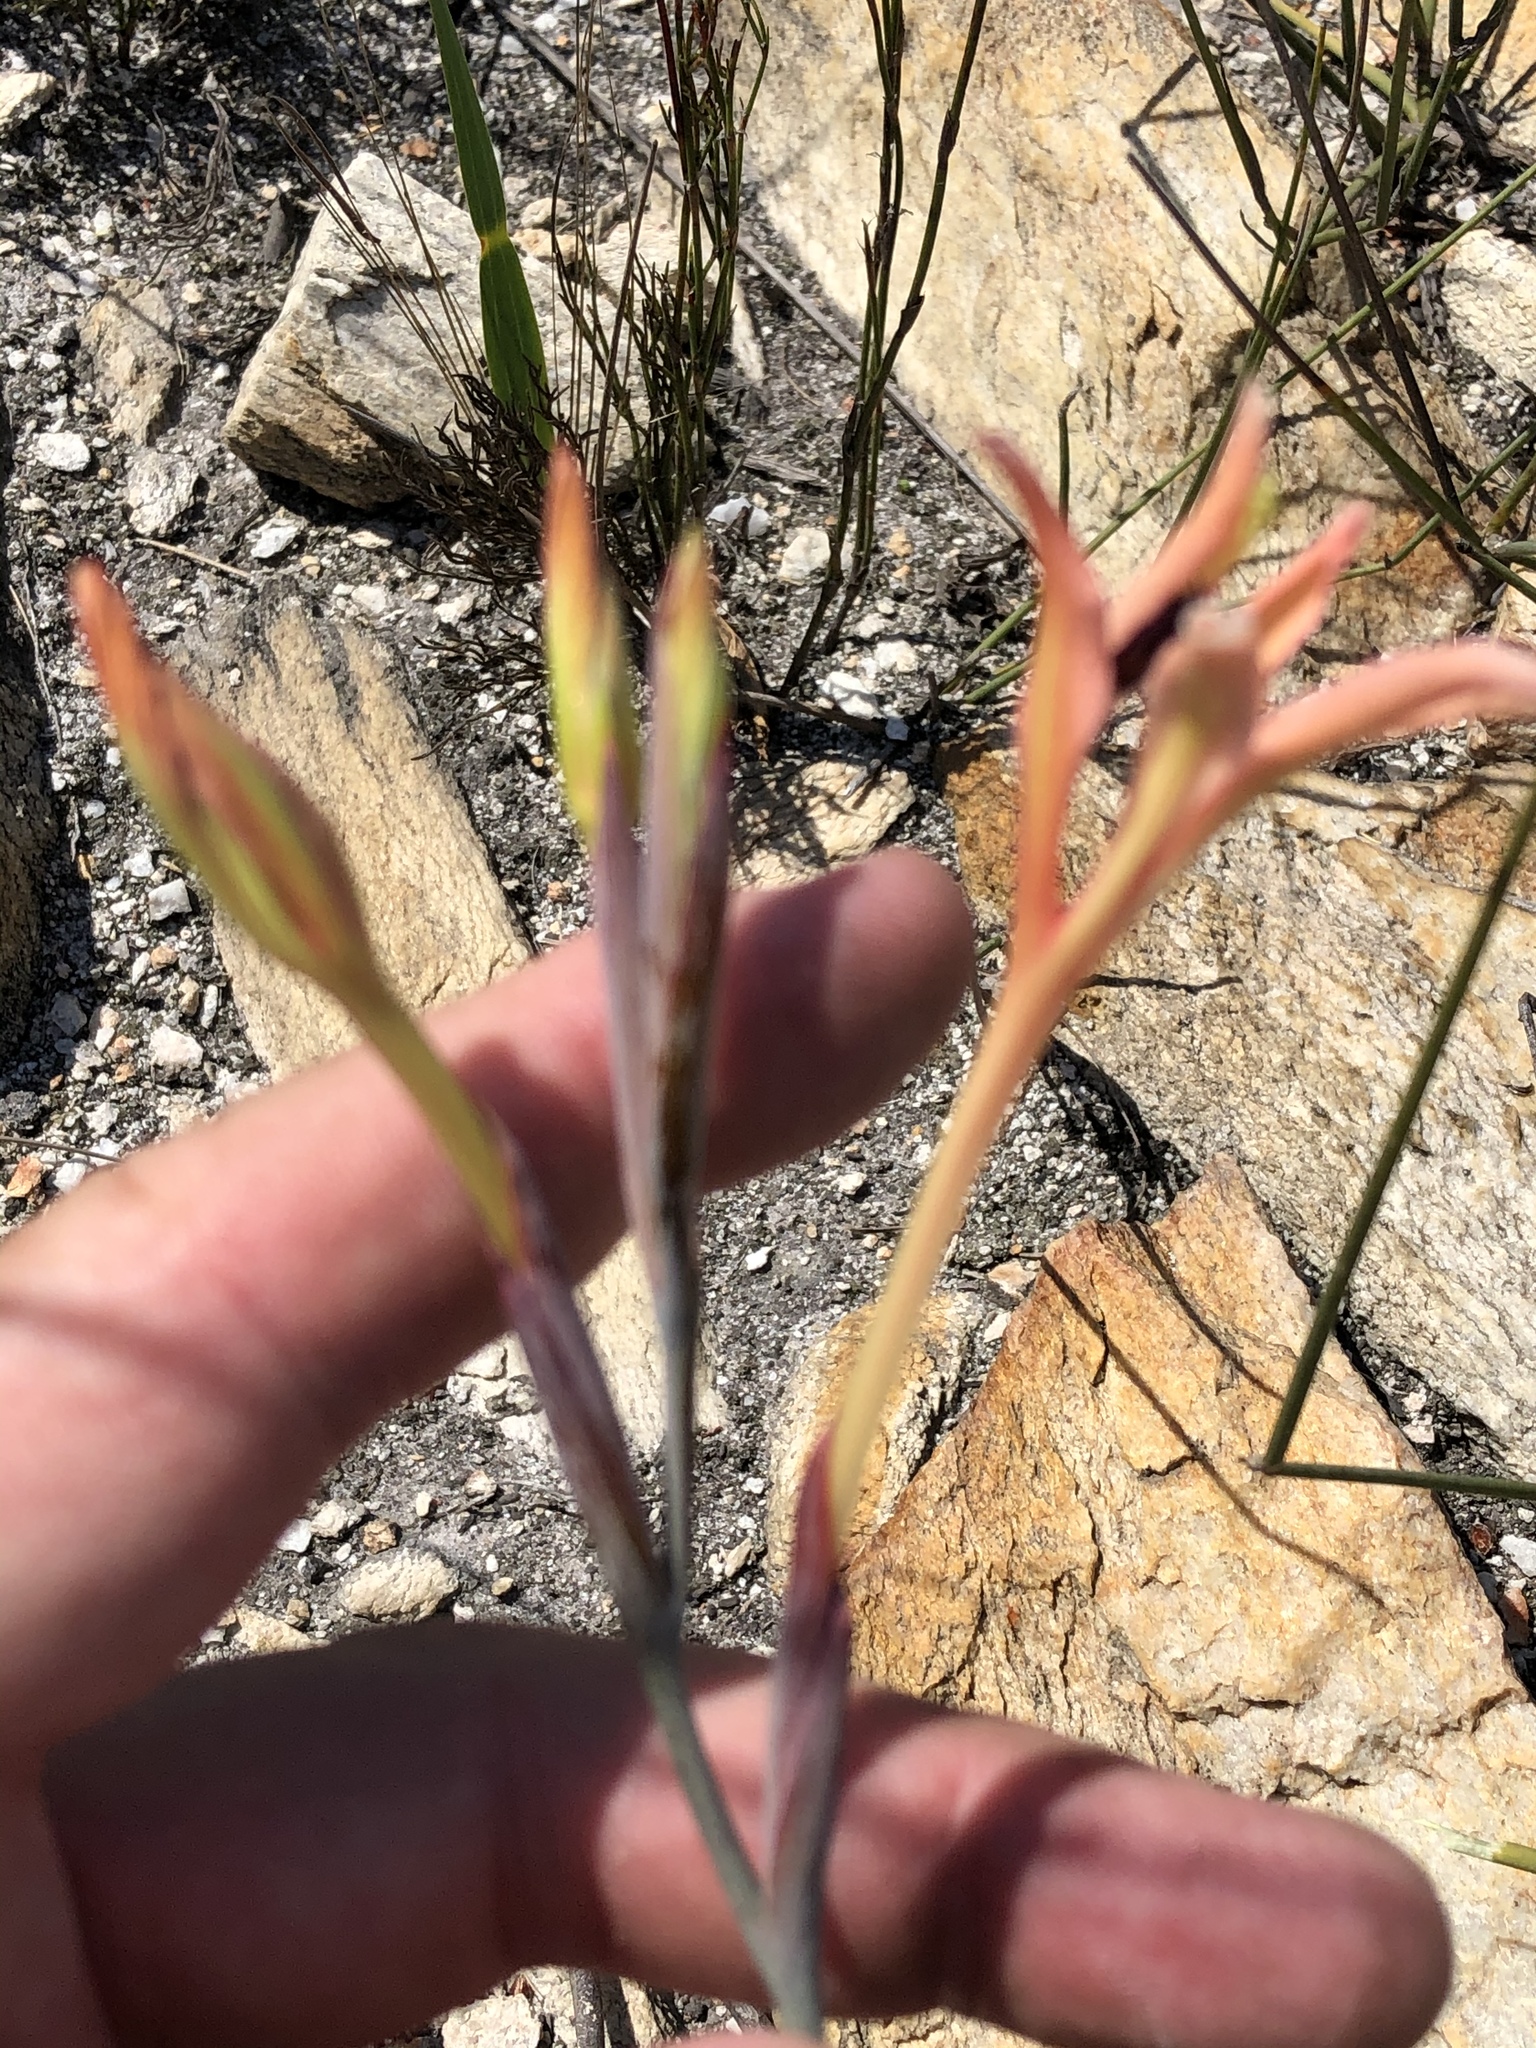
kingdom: Plantae
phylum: Tracheophyta
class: Liliopsida
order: Asparagales
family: Iridaceae
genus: Tritoniopsis
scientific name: Tritoniopsis revoluta
